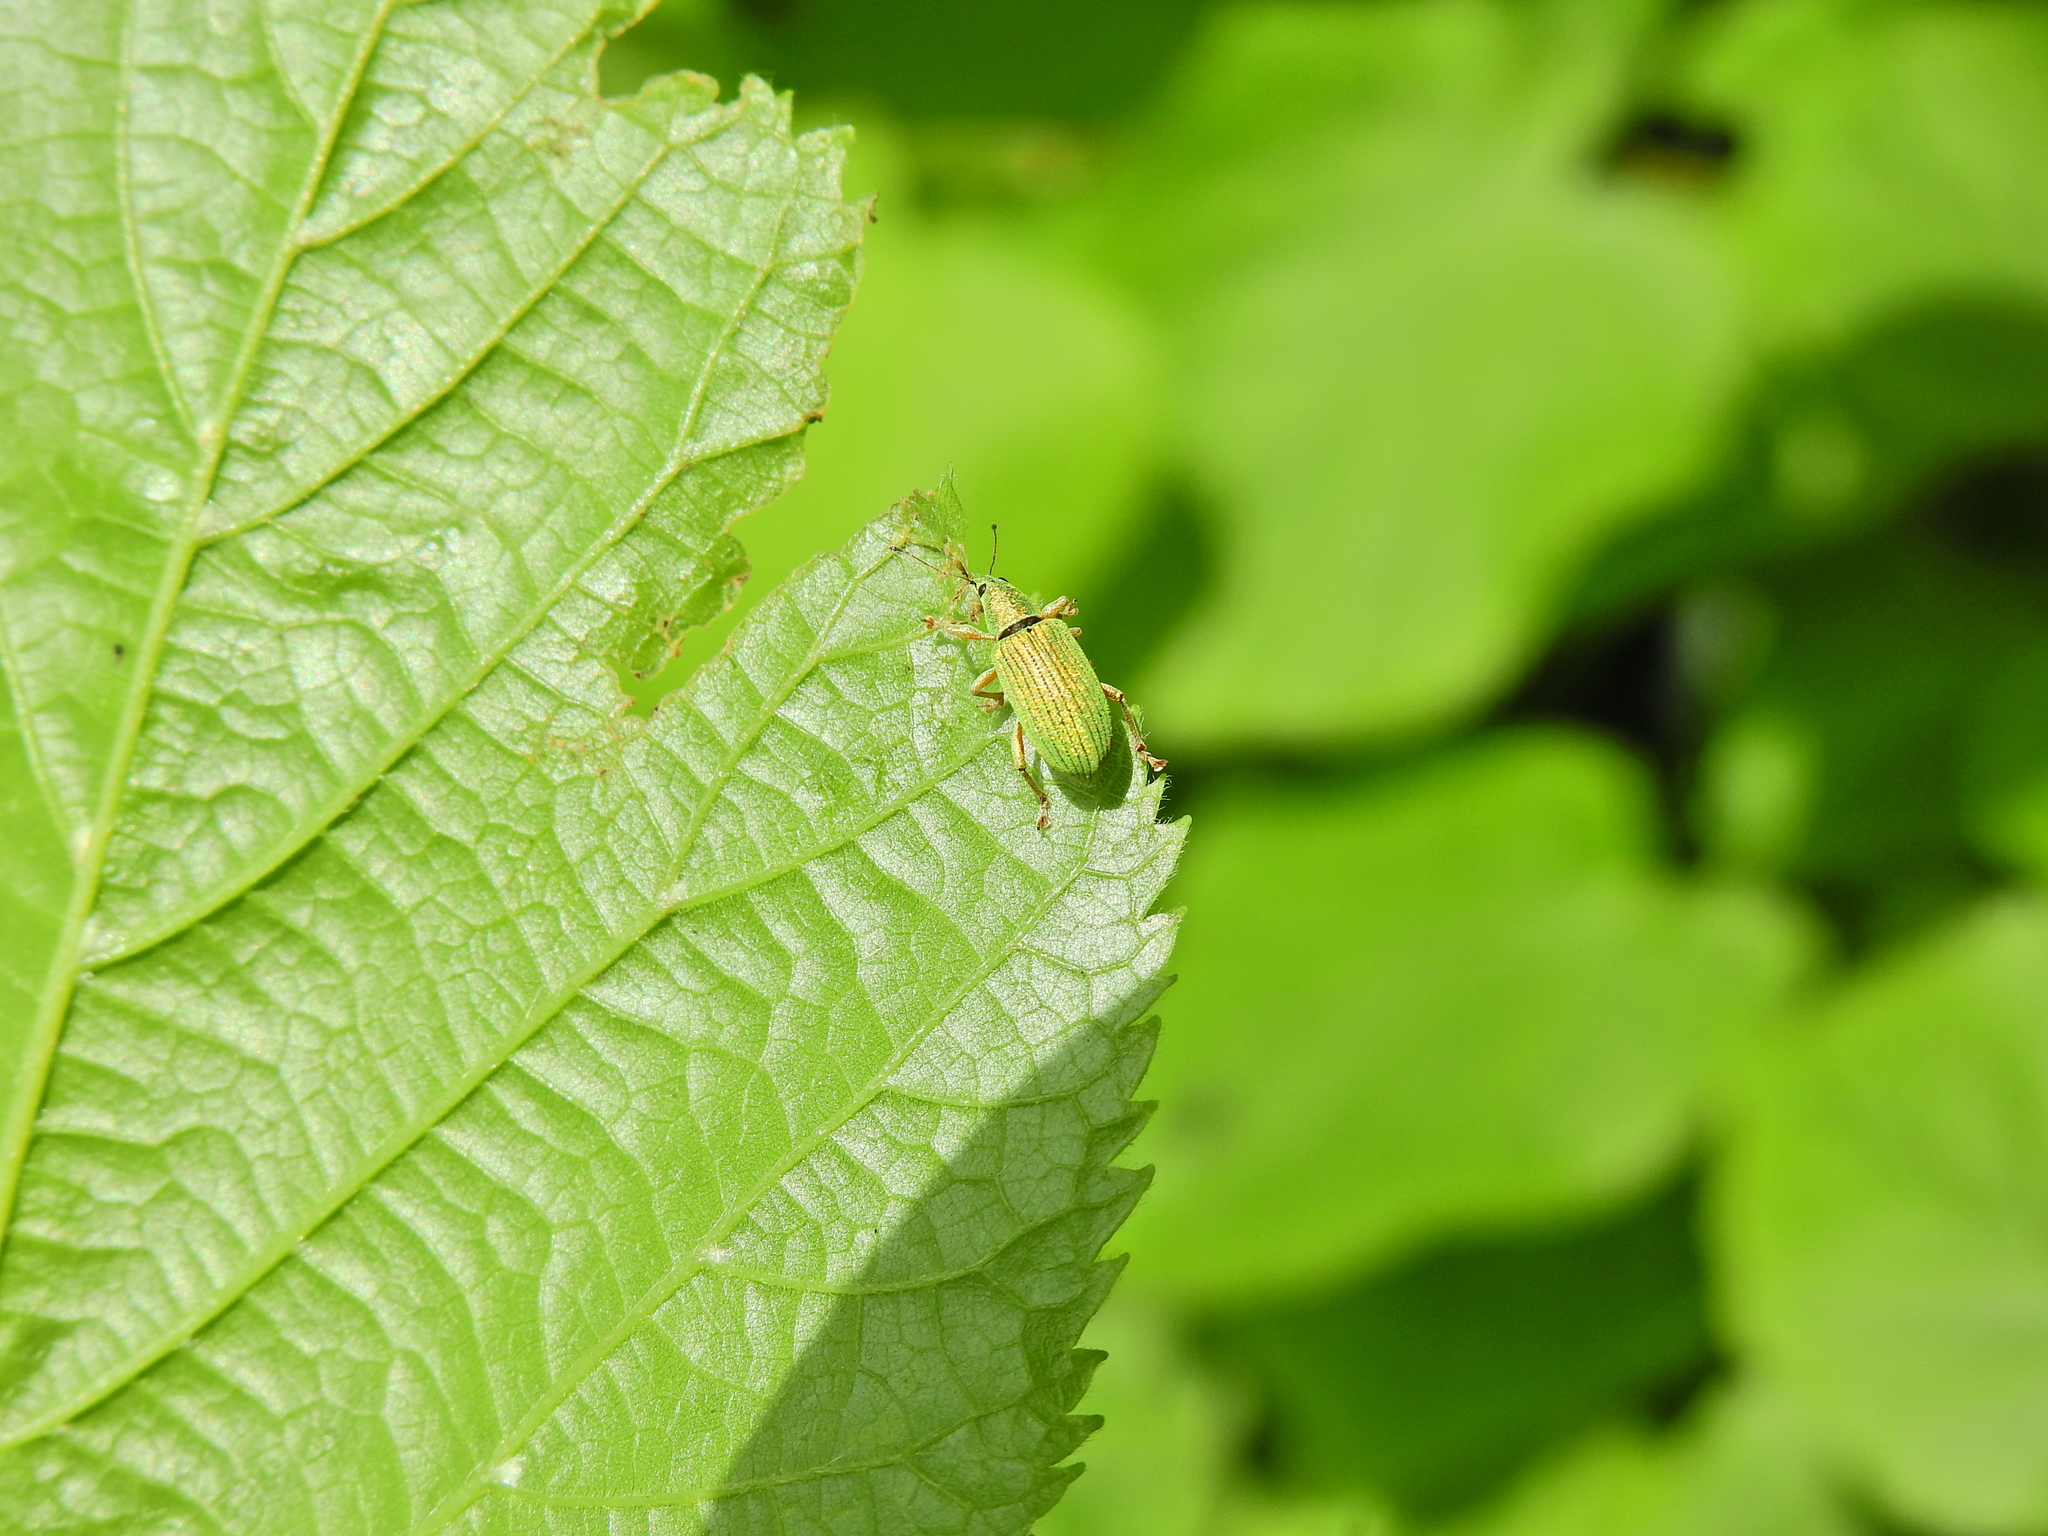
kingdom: Animalia
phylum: Arthropoda
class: Insecta
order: Coleoptera
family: Curculionidae
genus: Polydrusus
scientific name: Polydrusus formosus
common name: Weevil
